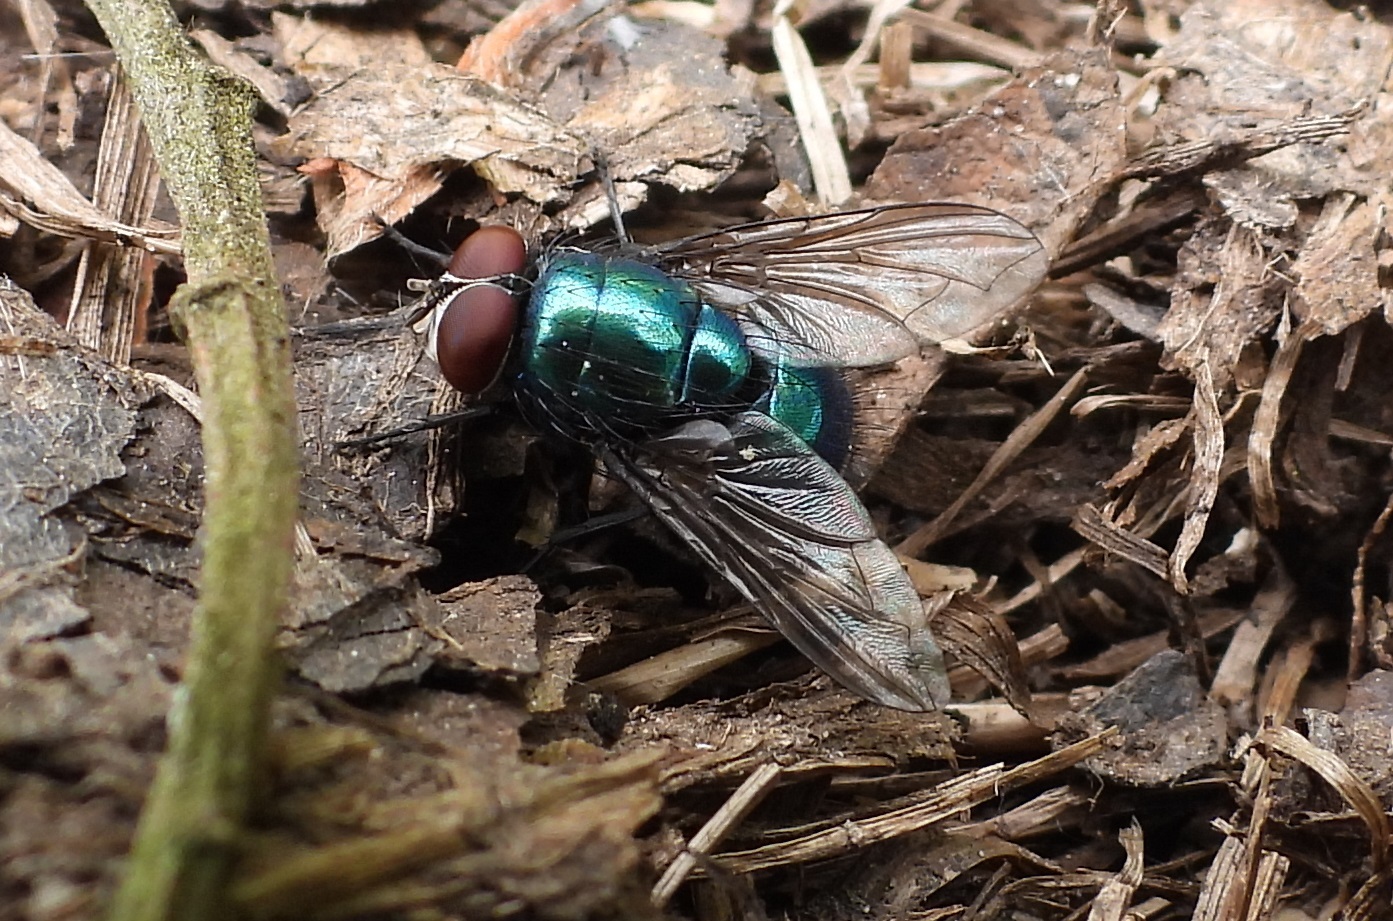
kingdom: Animalia
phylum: Arthropoda
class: Insecta
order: Diptera
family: Calliphoridae
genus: Lucilia
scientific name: Lucilia
